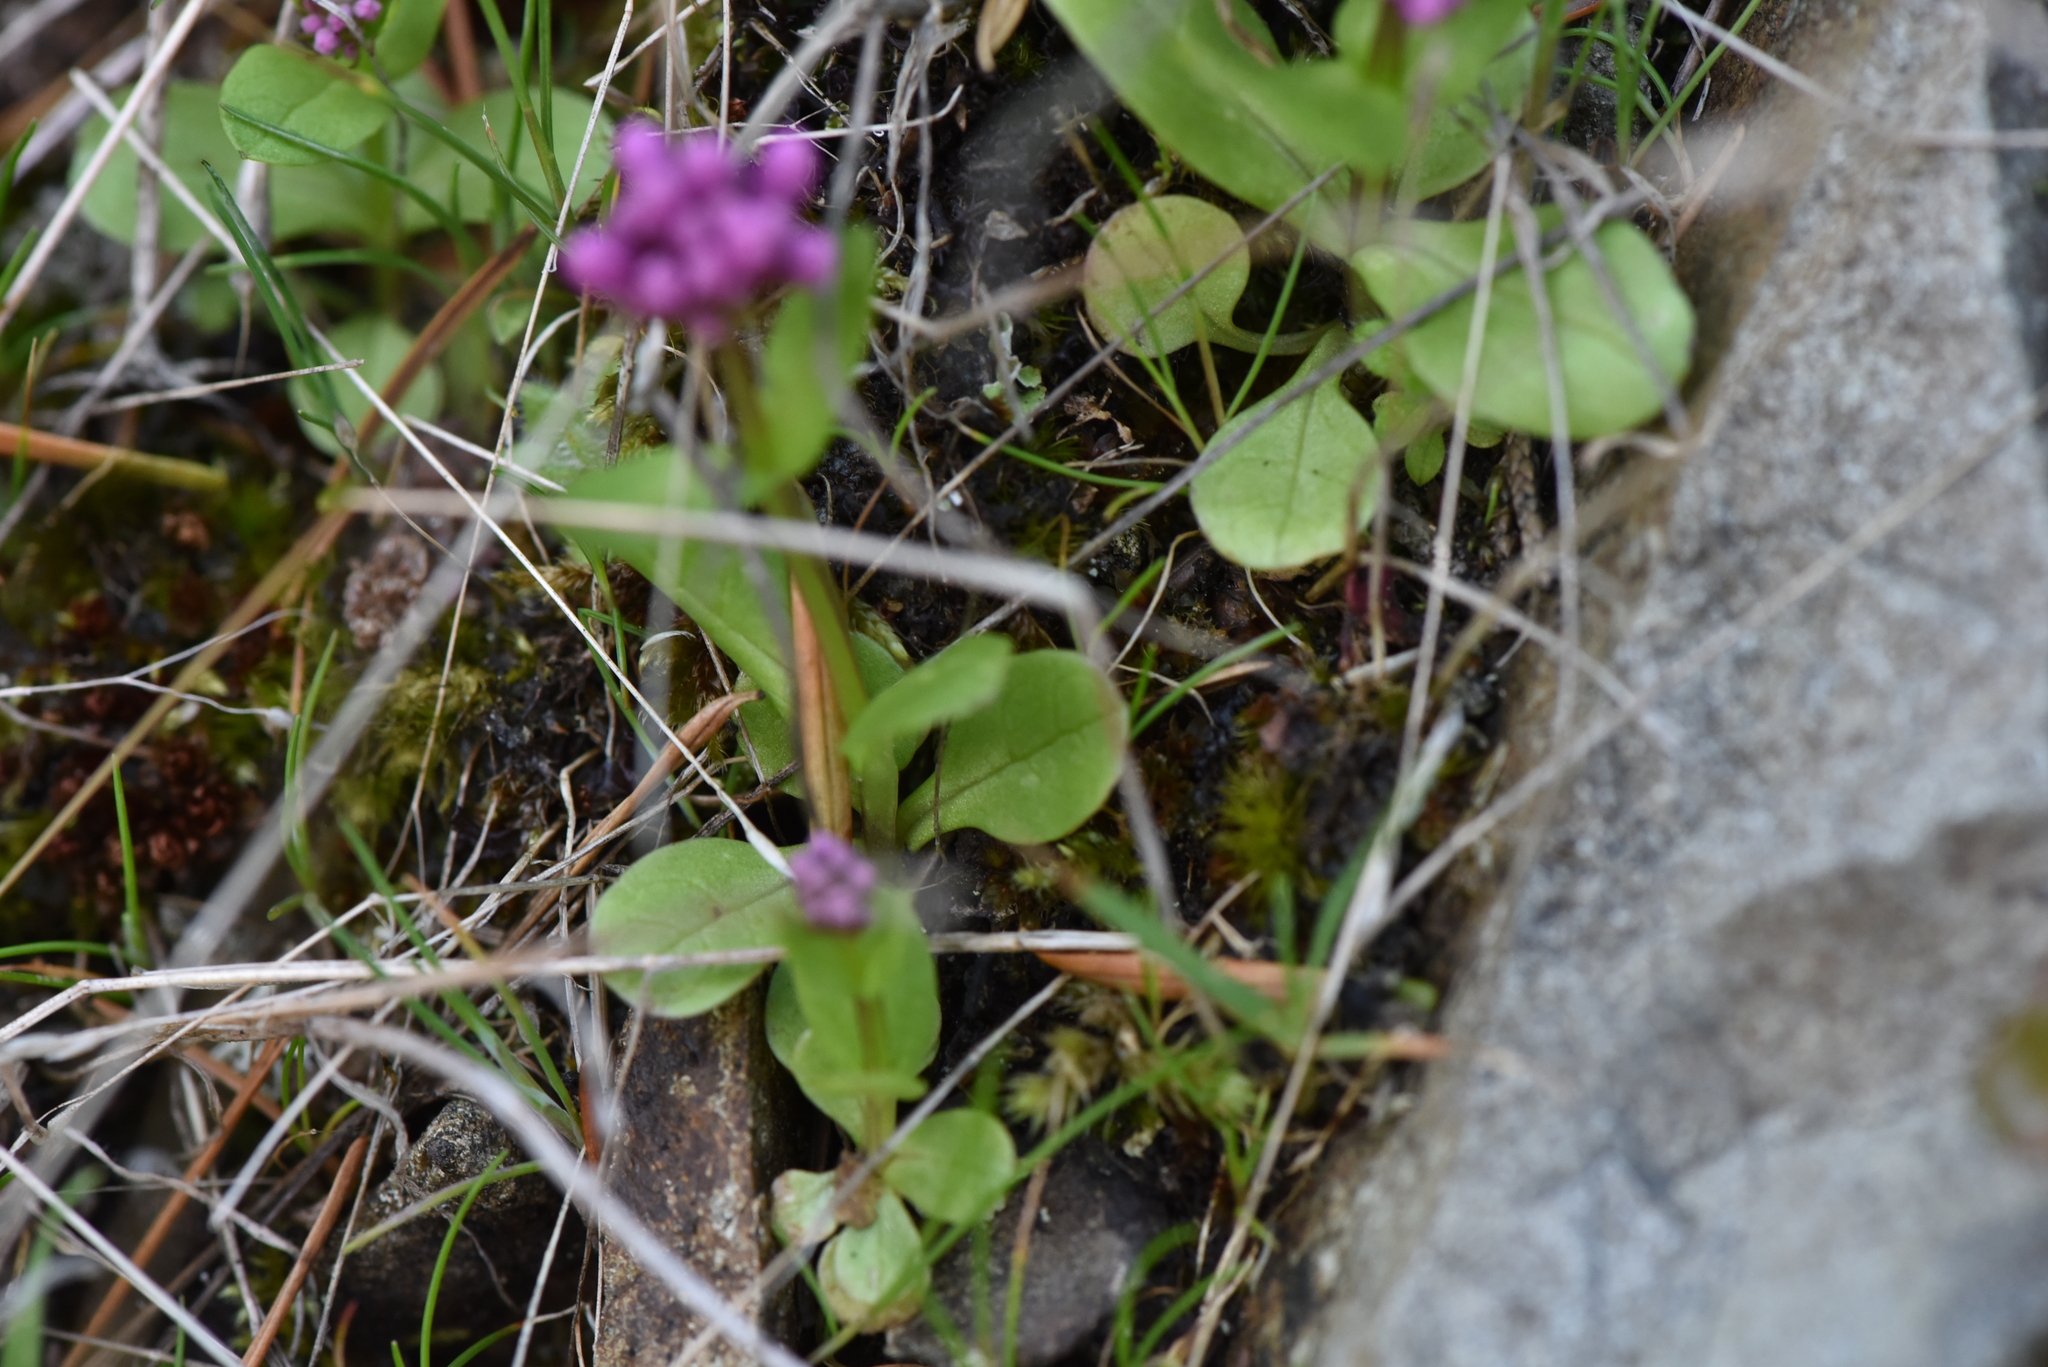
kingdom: Plantae
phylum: Tracheophyta
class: Magnoliopsida
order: Dipsacales
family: Caprifoliaceae
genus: Plectritis
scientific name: Plectritis congesta
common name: Pink plectritis
